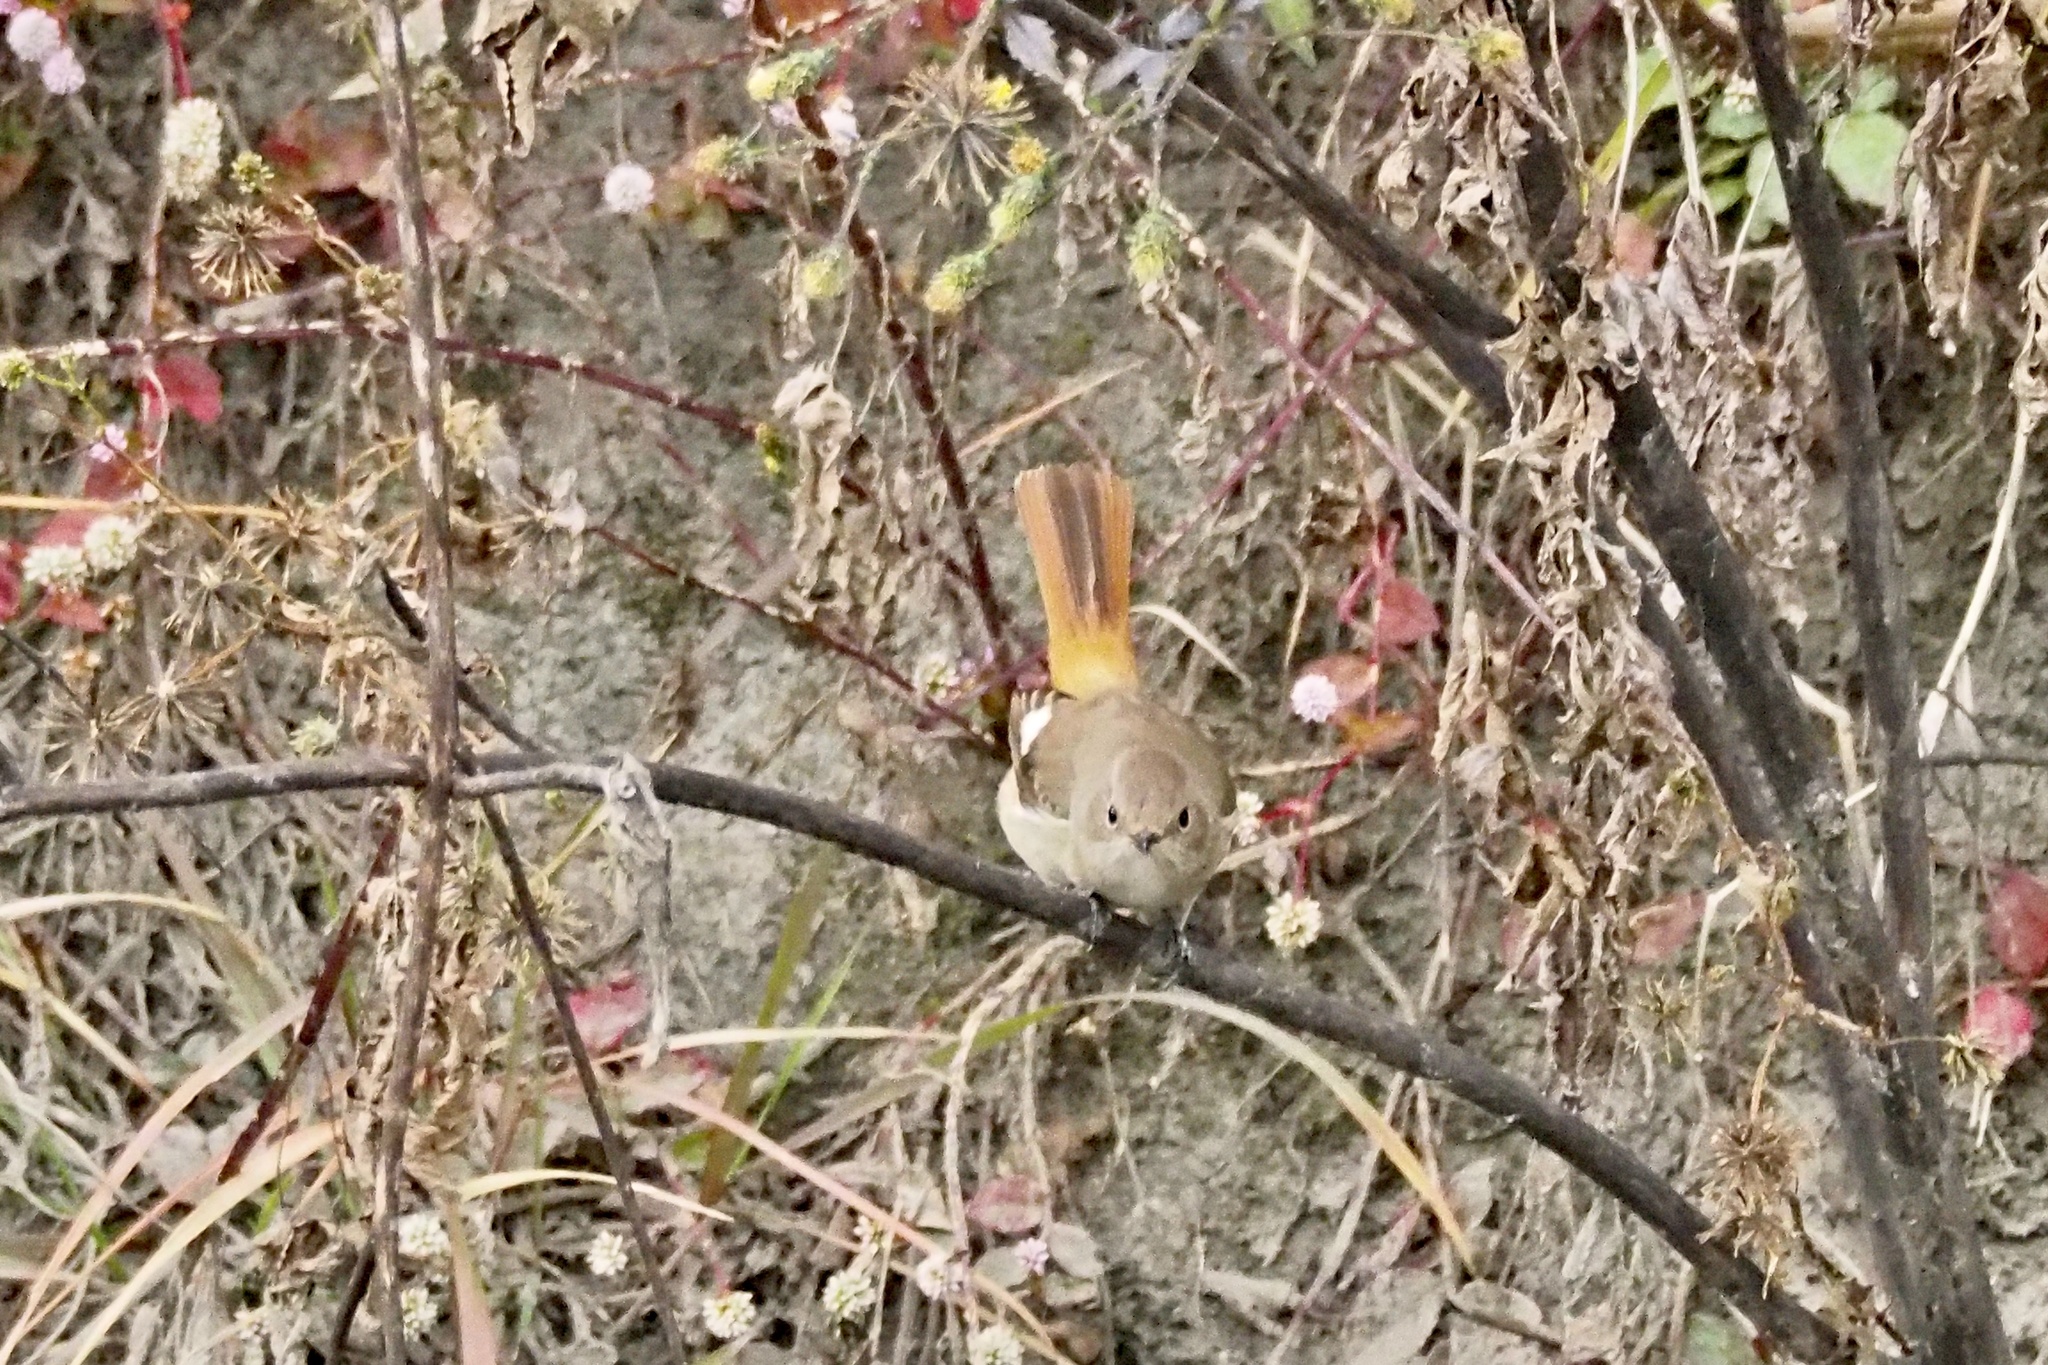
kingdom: Animalia
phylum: Chordata
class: Aves
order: Passeriformes
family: Muscicapidae
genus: Phoenicurus
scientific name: Phoenicurus auroreus
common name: Daurian redstart
